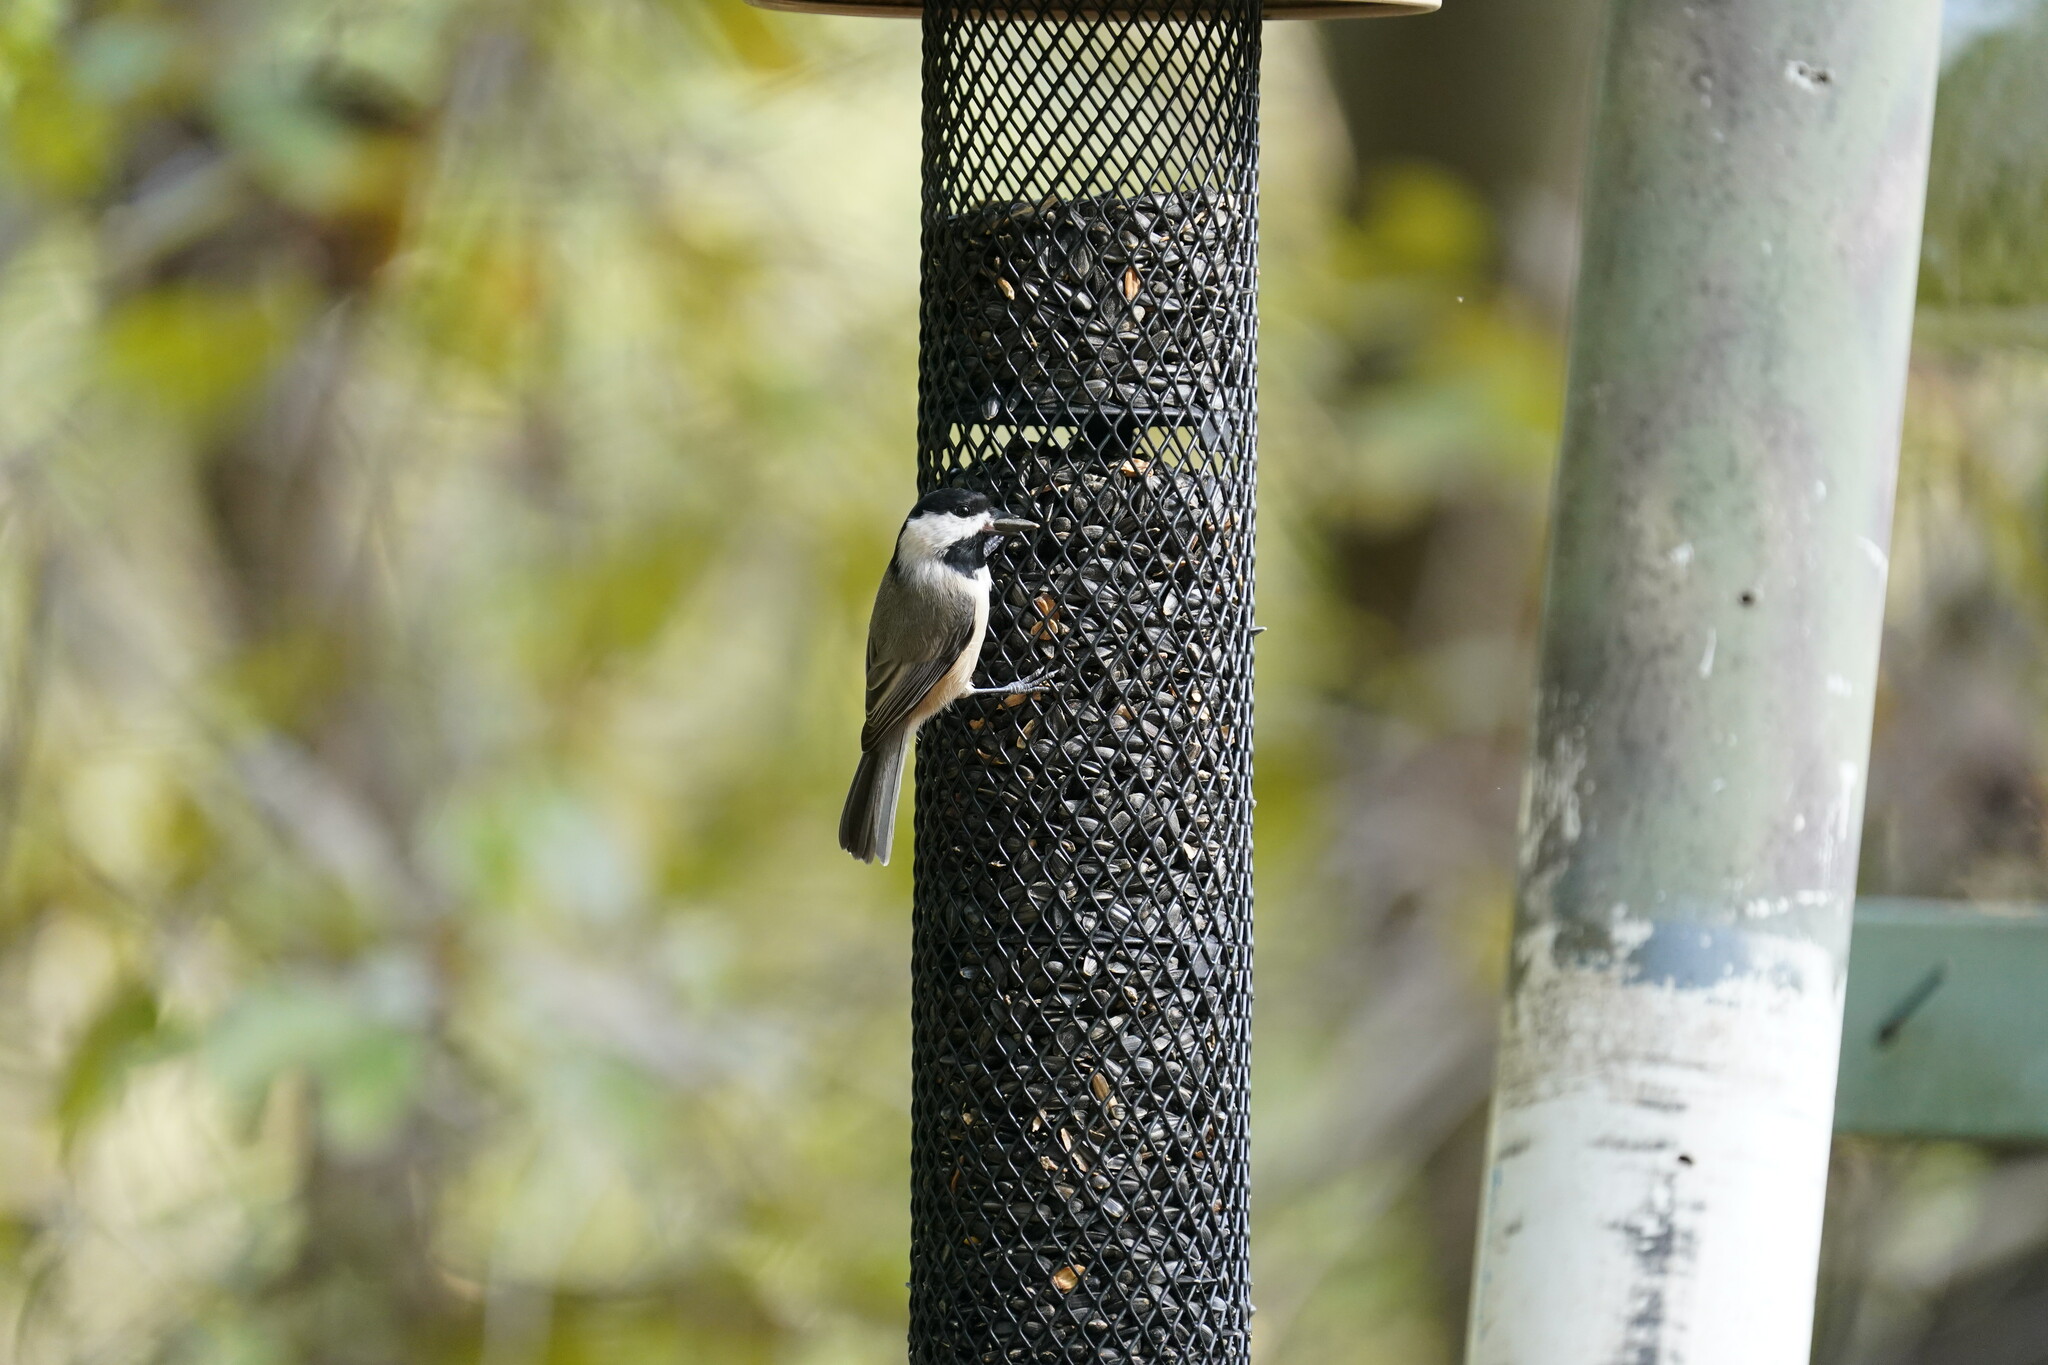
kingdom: Animalia
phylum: Chordata
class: Aves
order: Passeriformes
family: Paridae
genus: Poecile
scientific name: Poecile carolinensis
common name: Carolina chickadee
